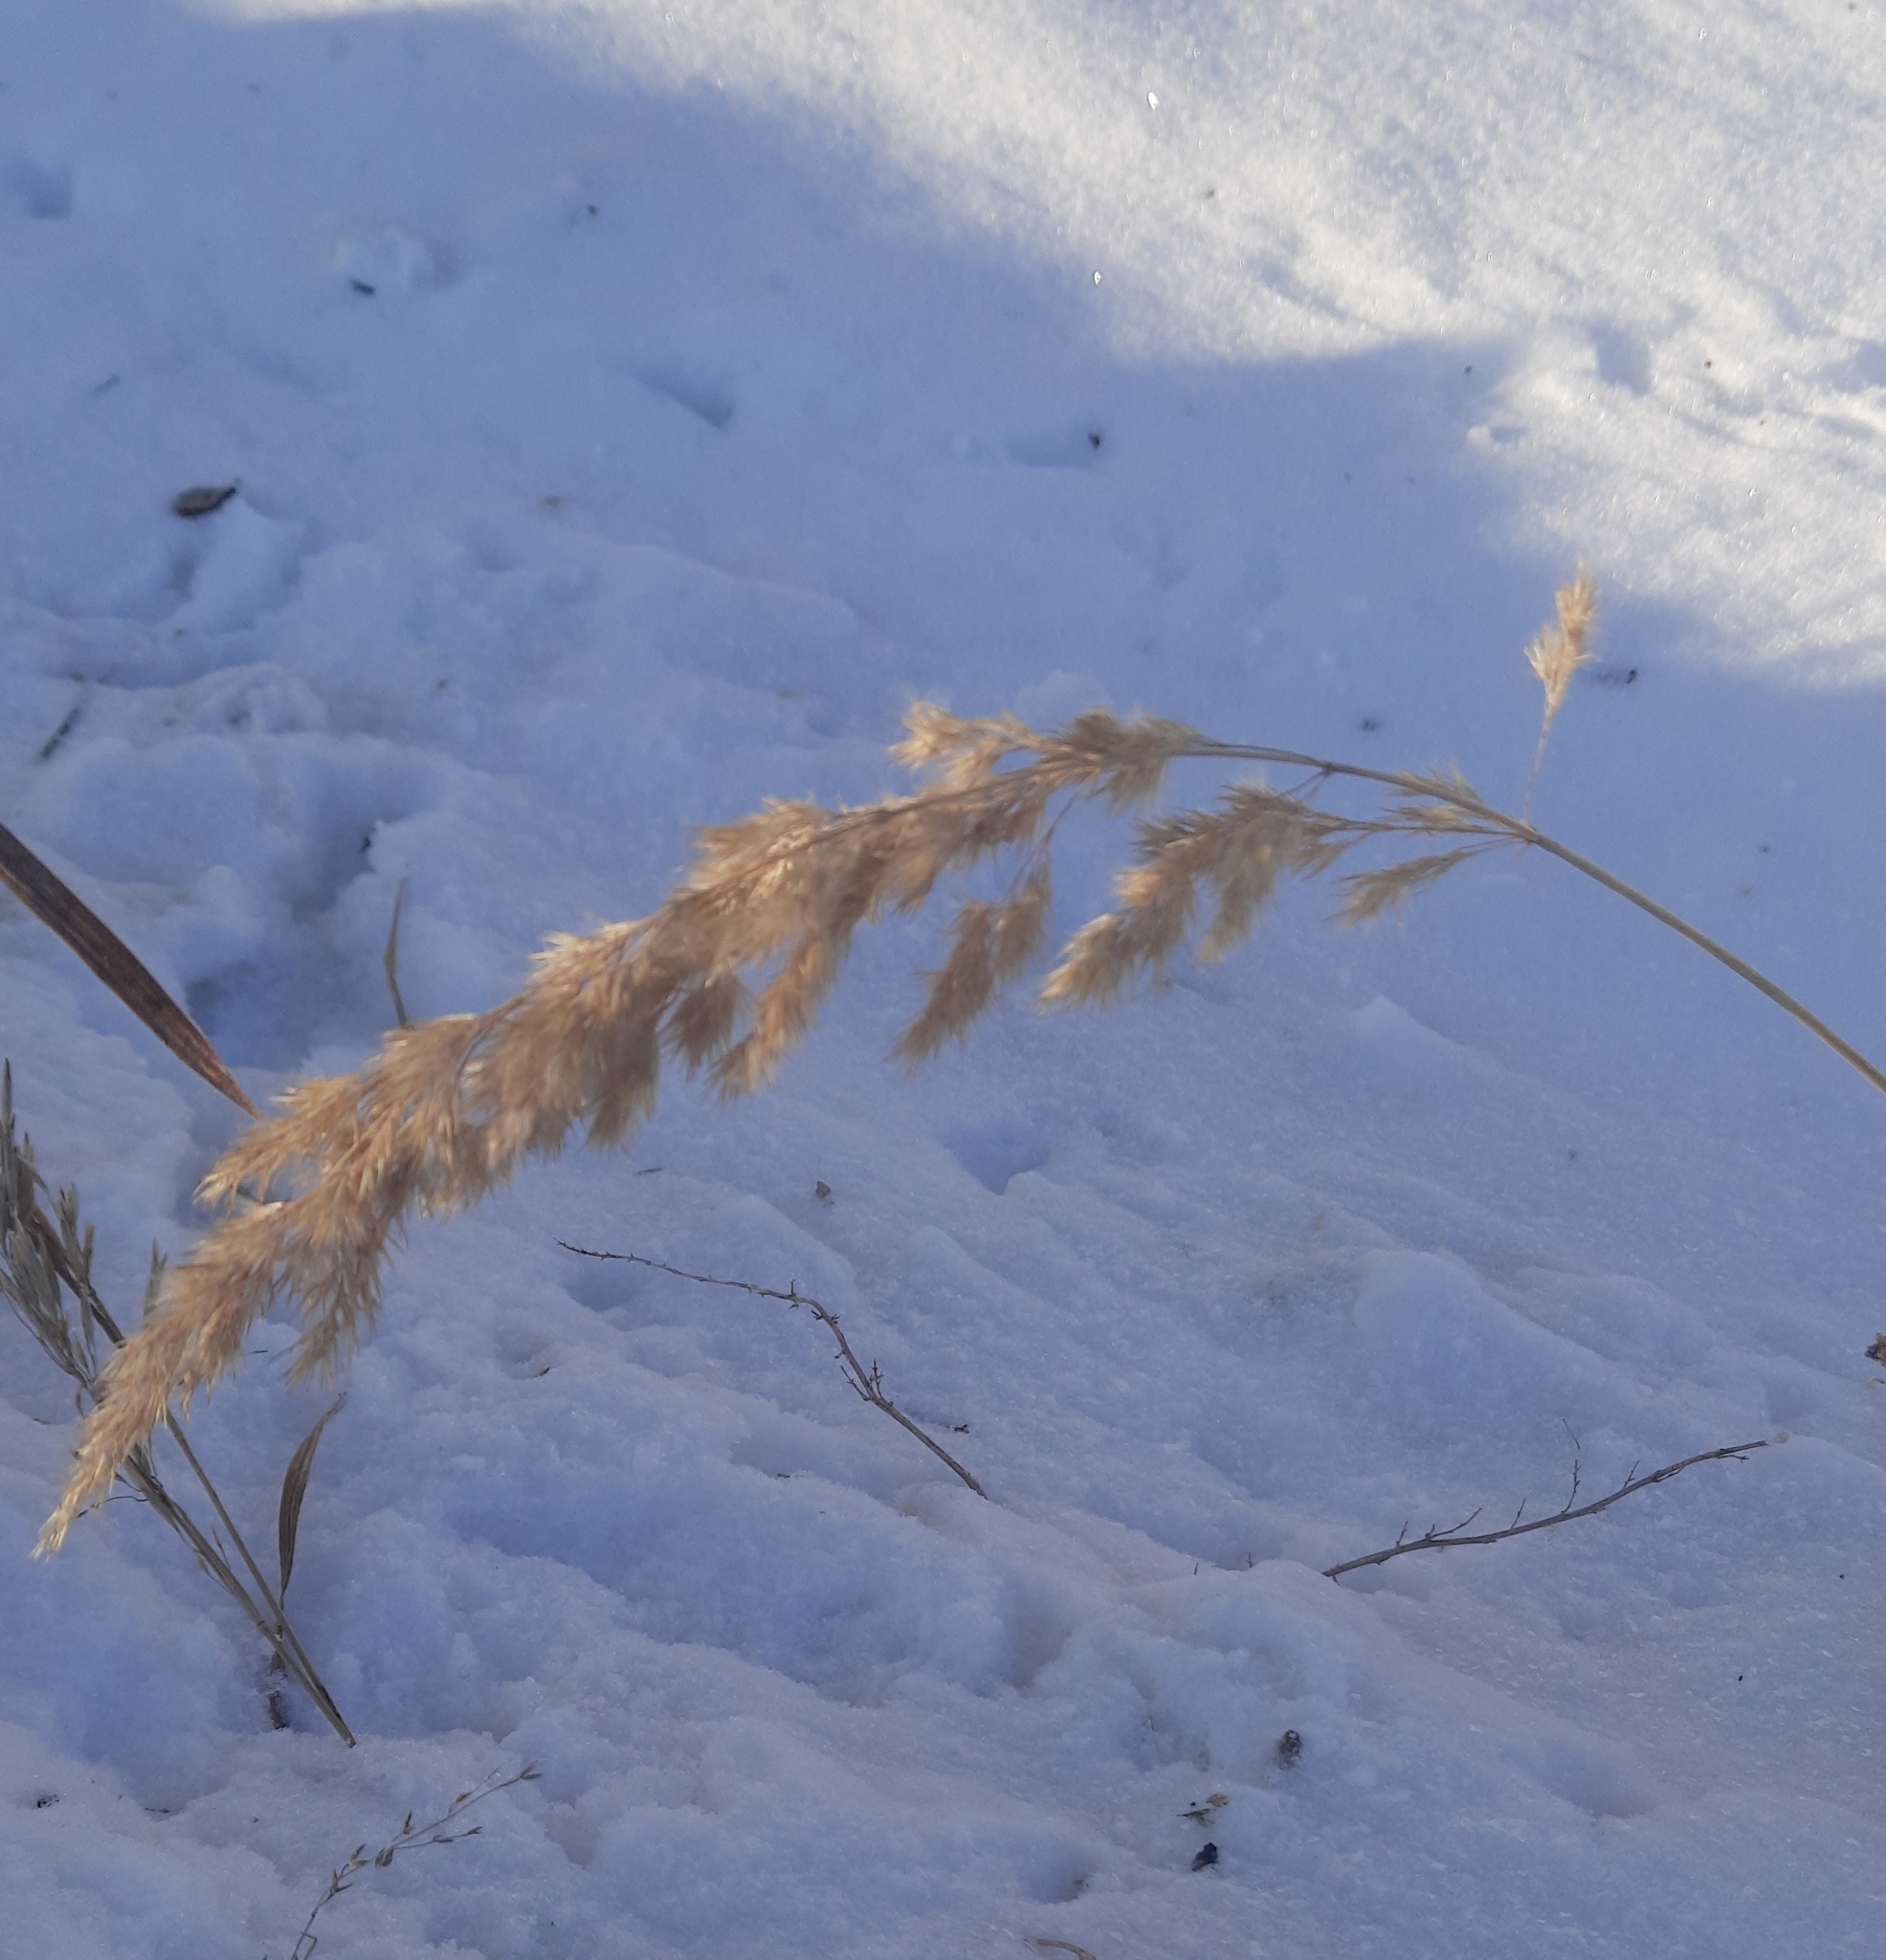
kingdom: Plantae
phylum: Tracheophyta
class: Liliopsida
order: Poales
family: Poaceae
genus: Calamagrostis
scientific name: Calamagrostis epigejos
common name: Wood small-reed
